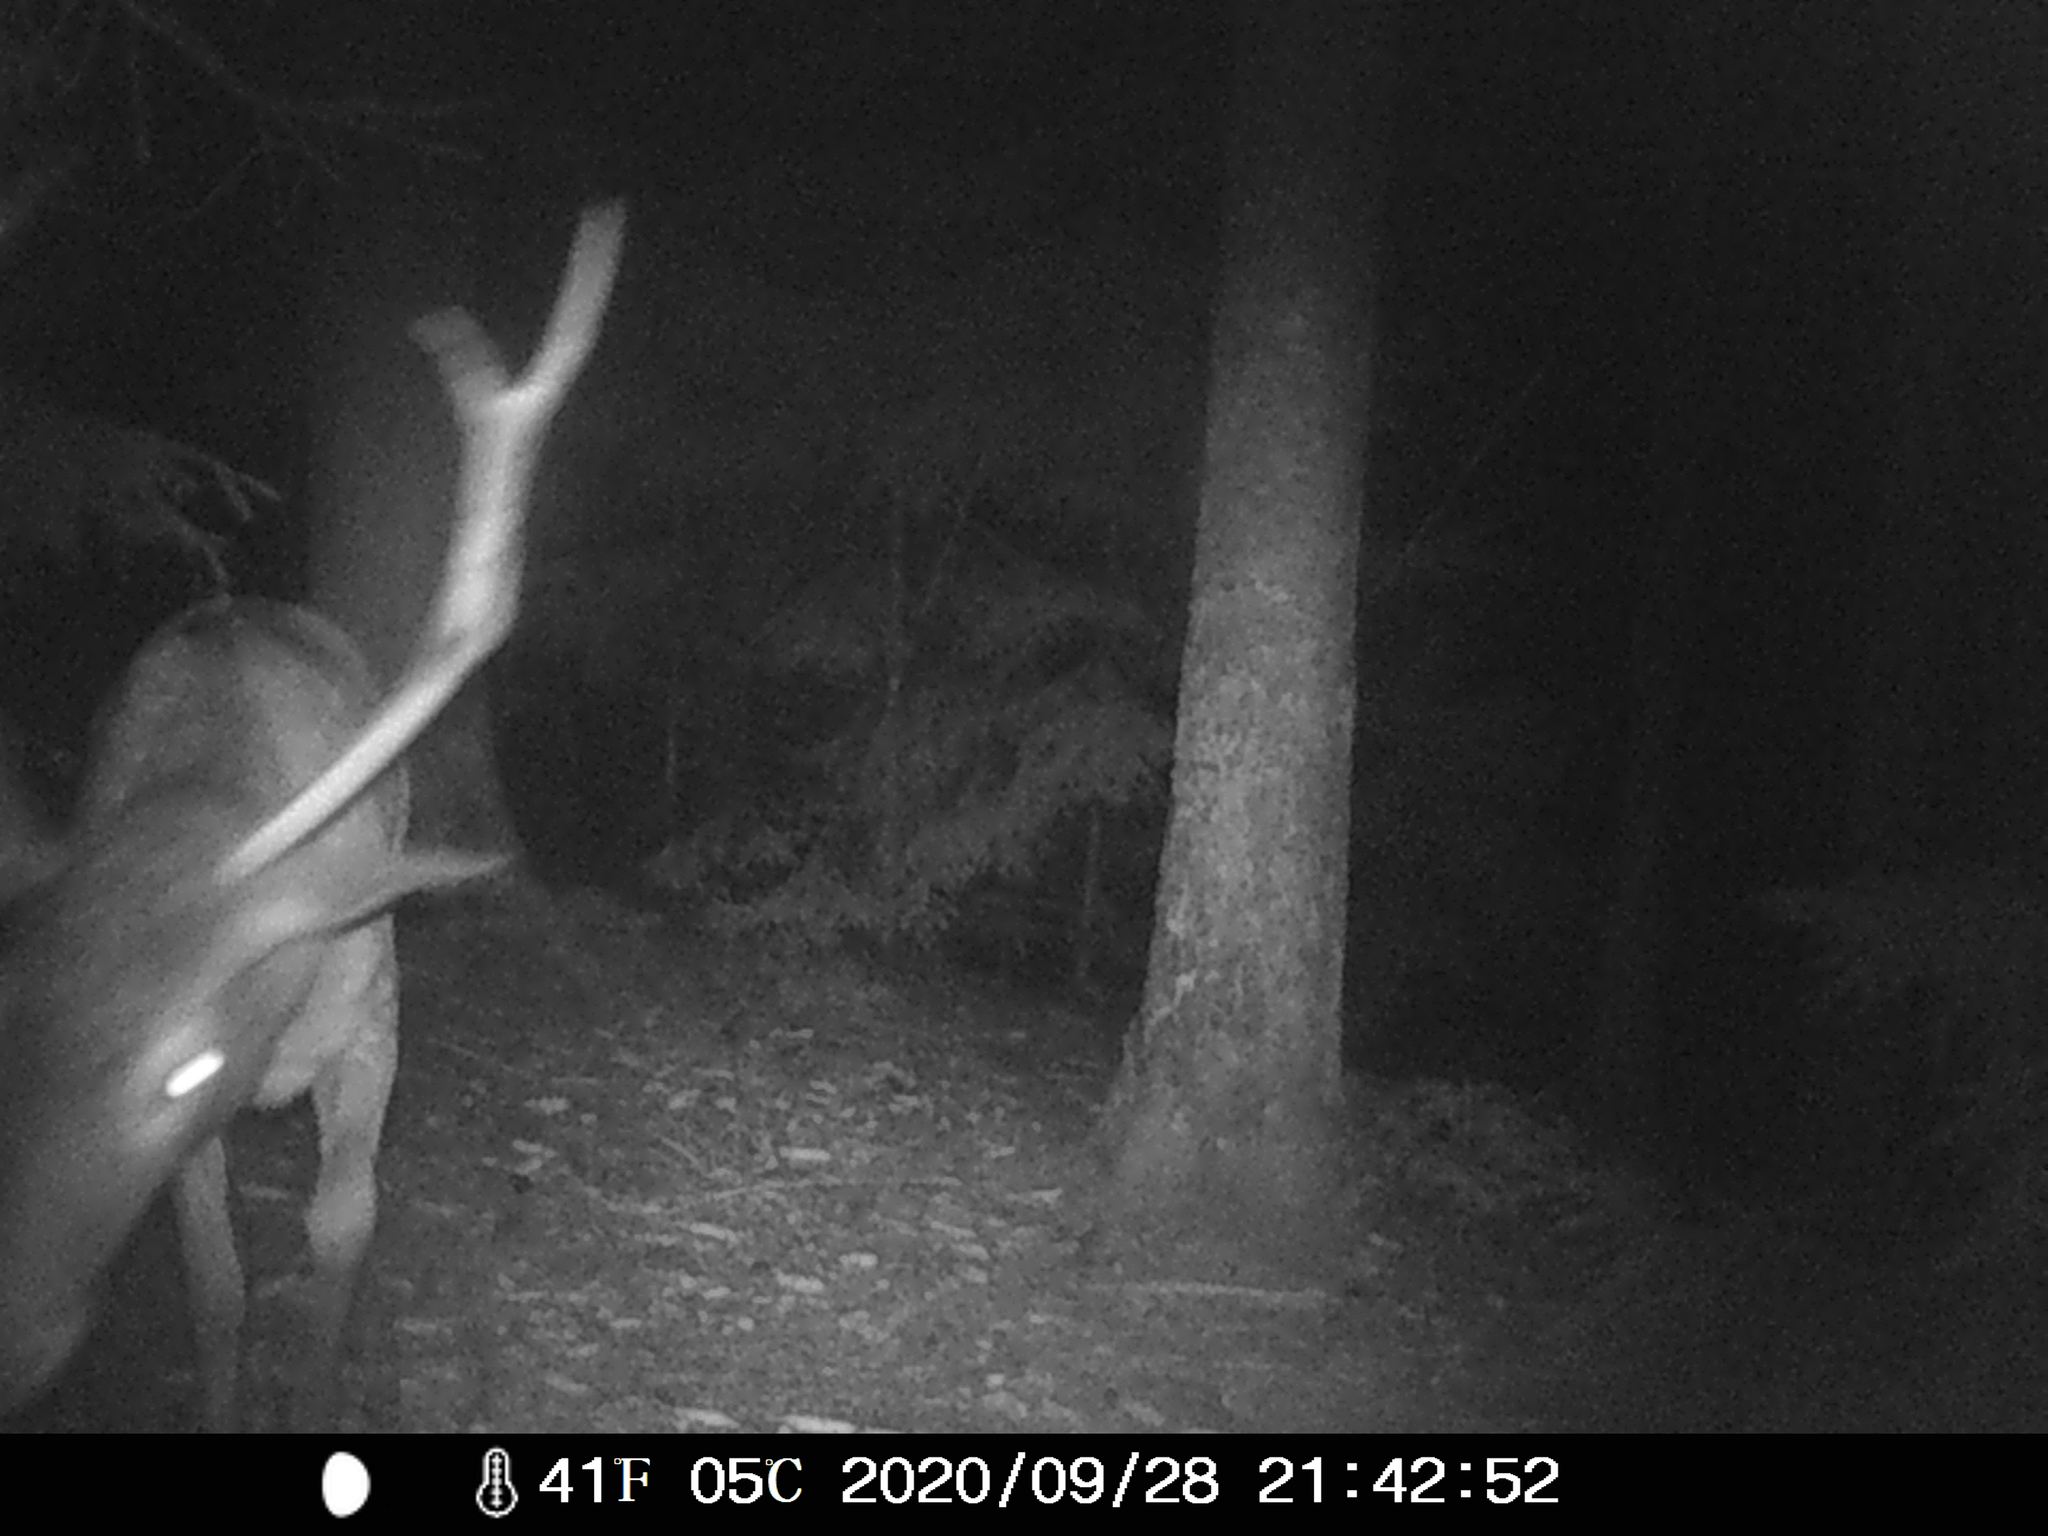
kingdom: Animalia
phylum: Chordata
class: Mammalia
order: Artiodactyla
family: Cervidae
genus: Cervus
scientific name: Cervus elaphus
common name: Red deer
